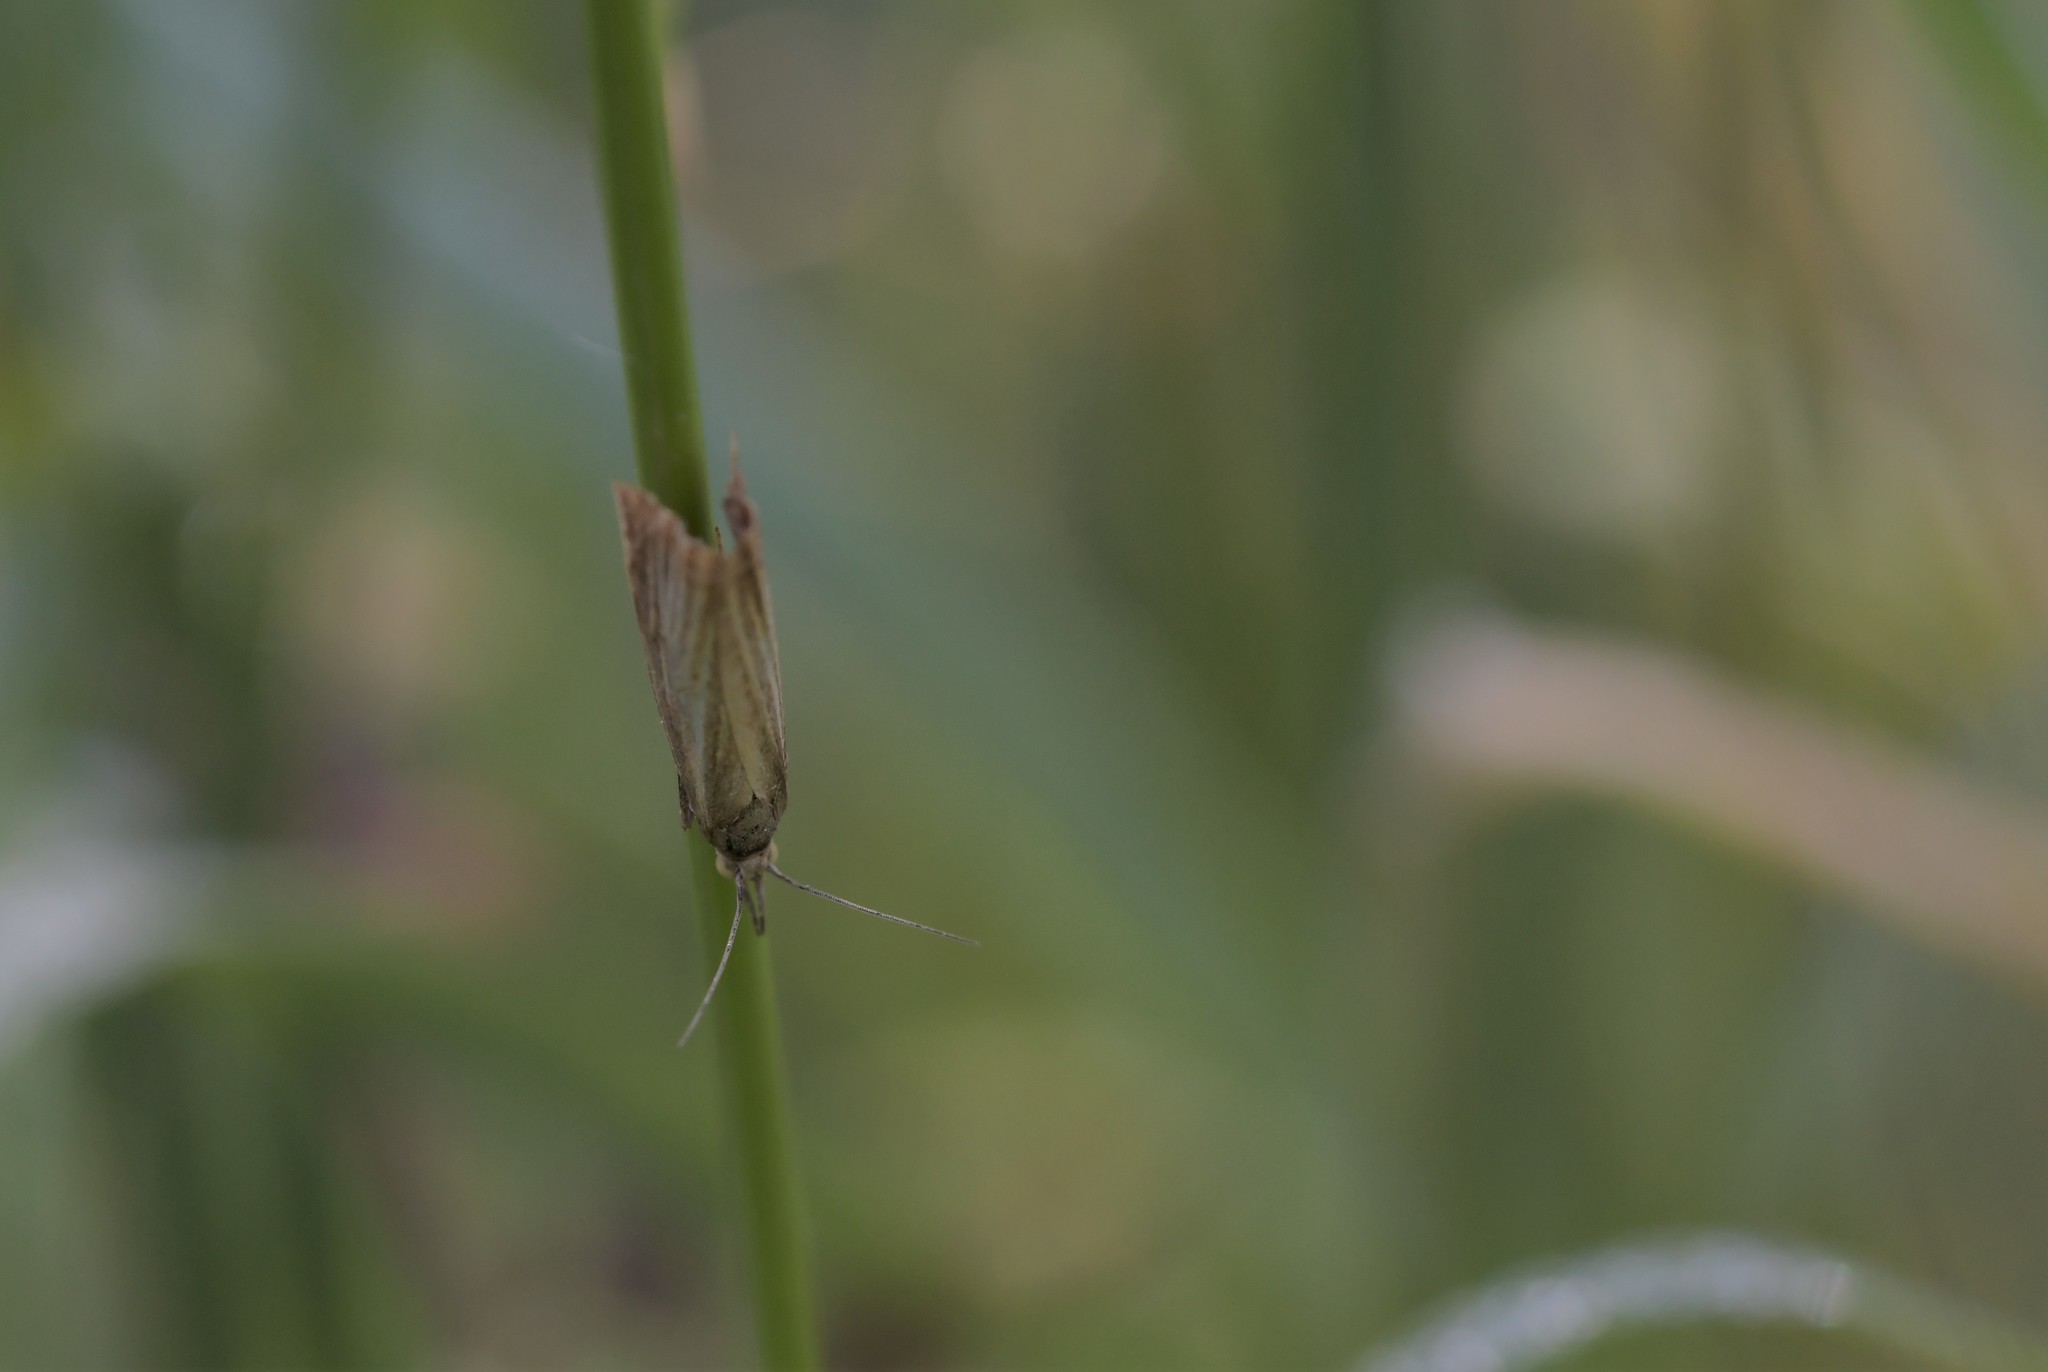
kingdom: Animalia
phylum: Arthropoda
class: Insecta
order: Lepidoptera
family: Crambidae
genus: Chrysoteuchia
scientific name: Chrysoteuchia culmella
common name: Garden grass-veneer
